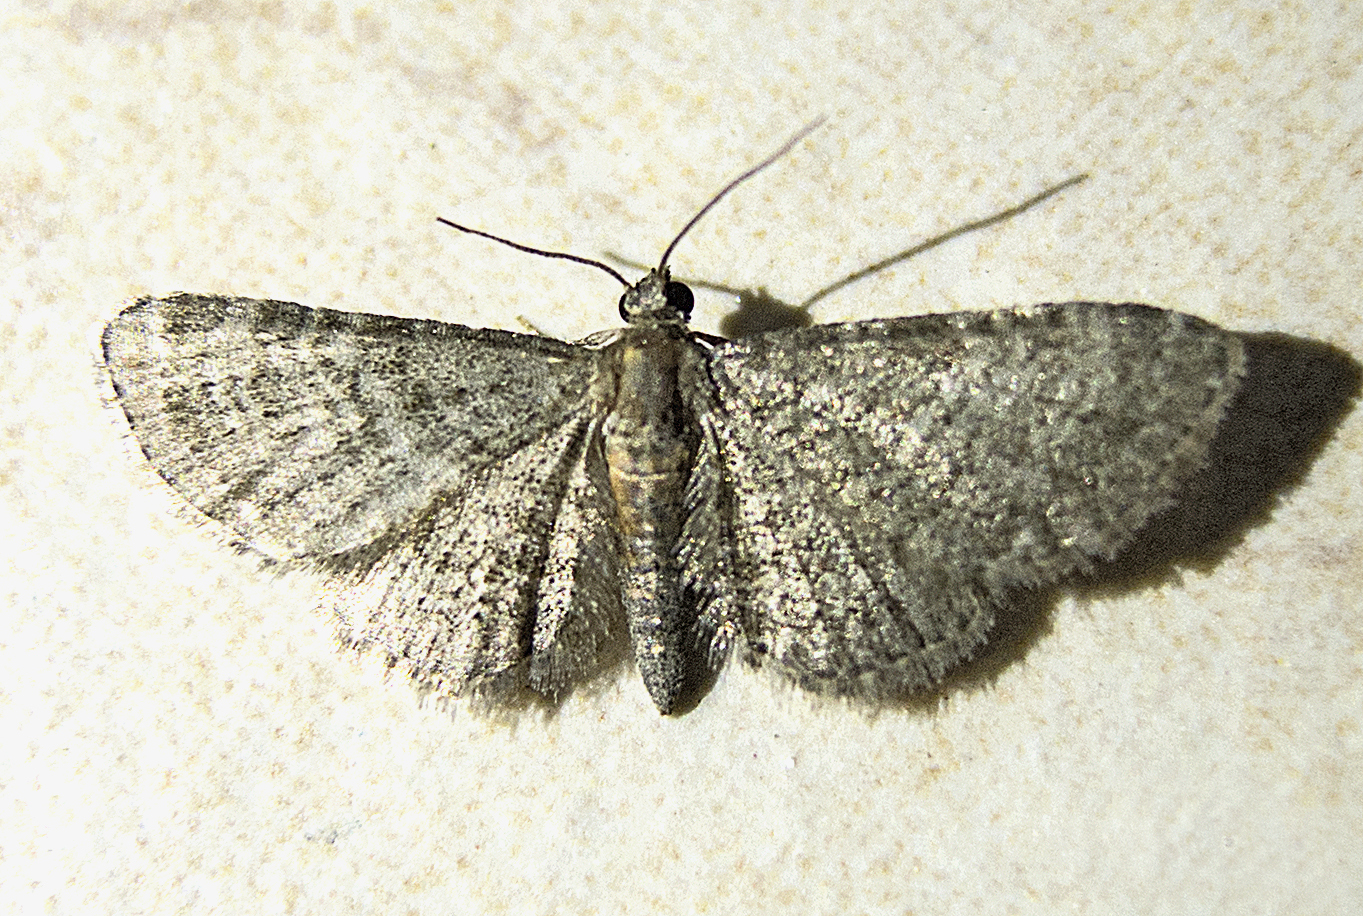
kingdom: Animalia
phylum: Arthropoda
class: Insecta
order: Lepidoptera
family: Geometridae
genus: Eupithecia
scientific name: Eupithecia haworthiata
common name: Haworth's pug
